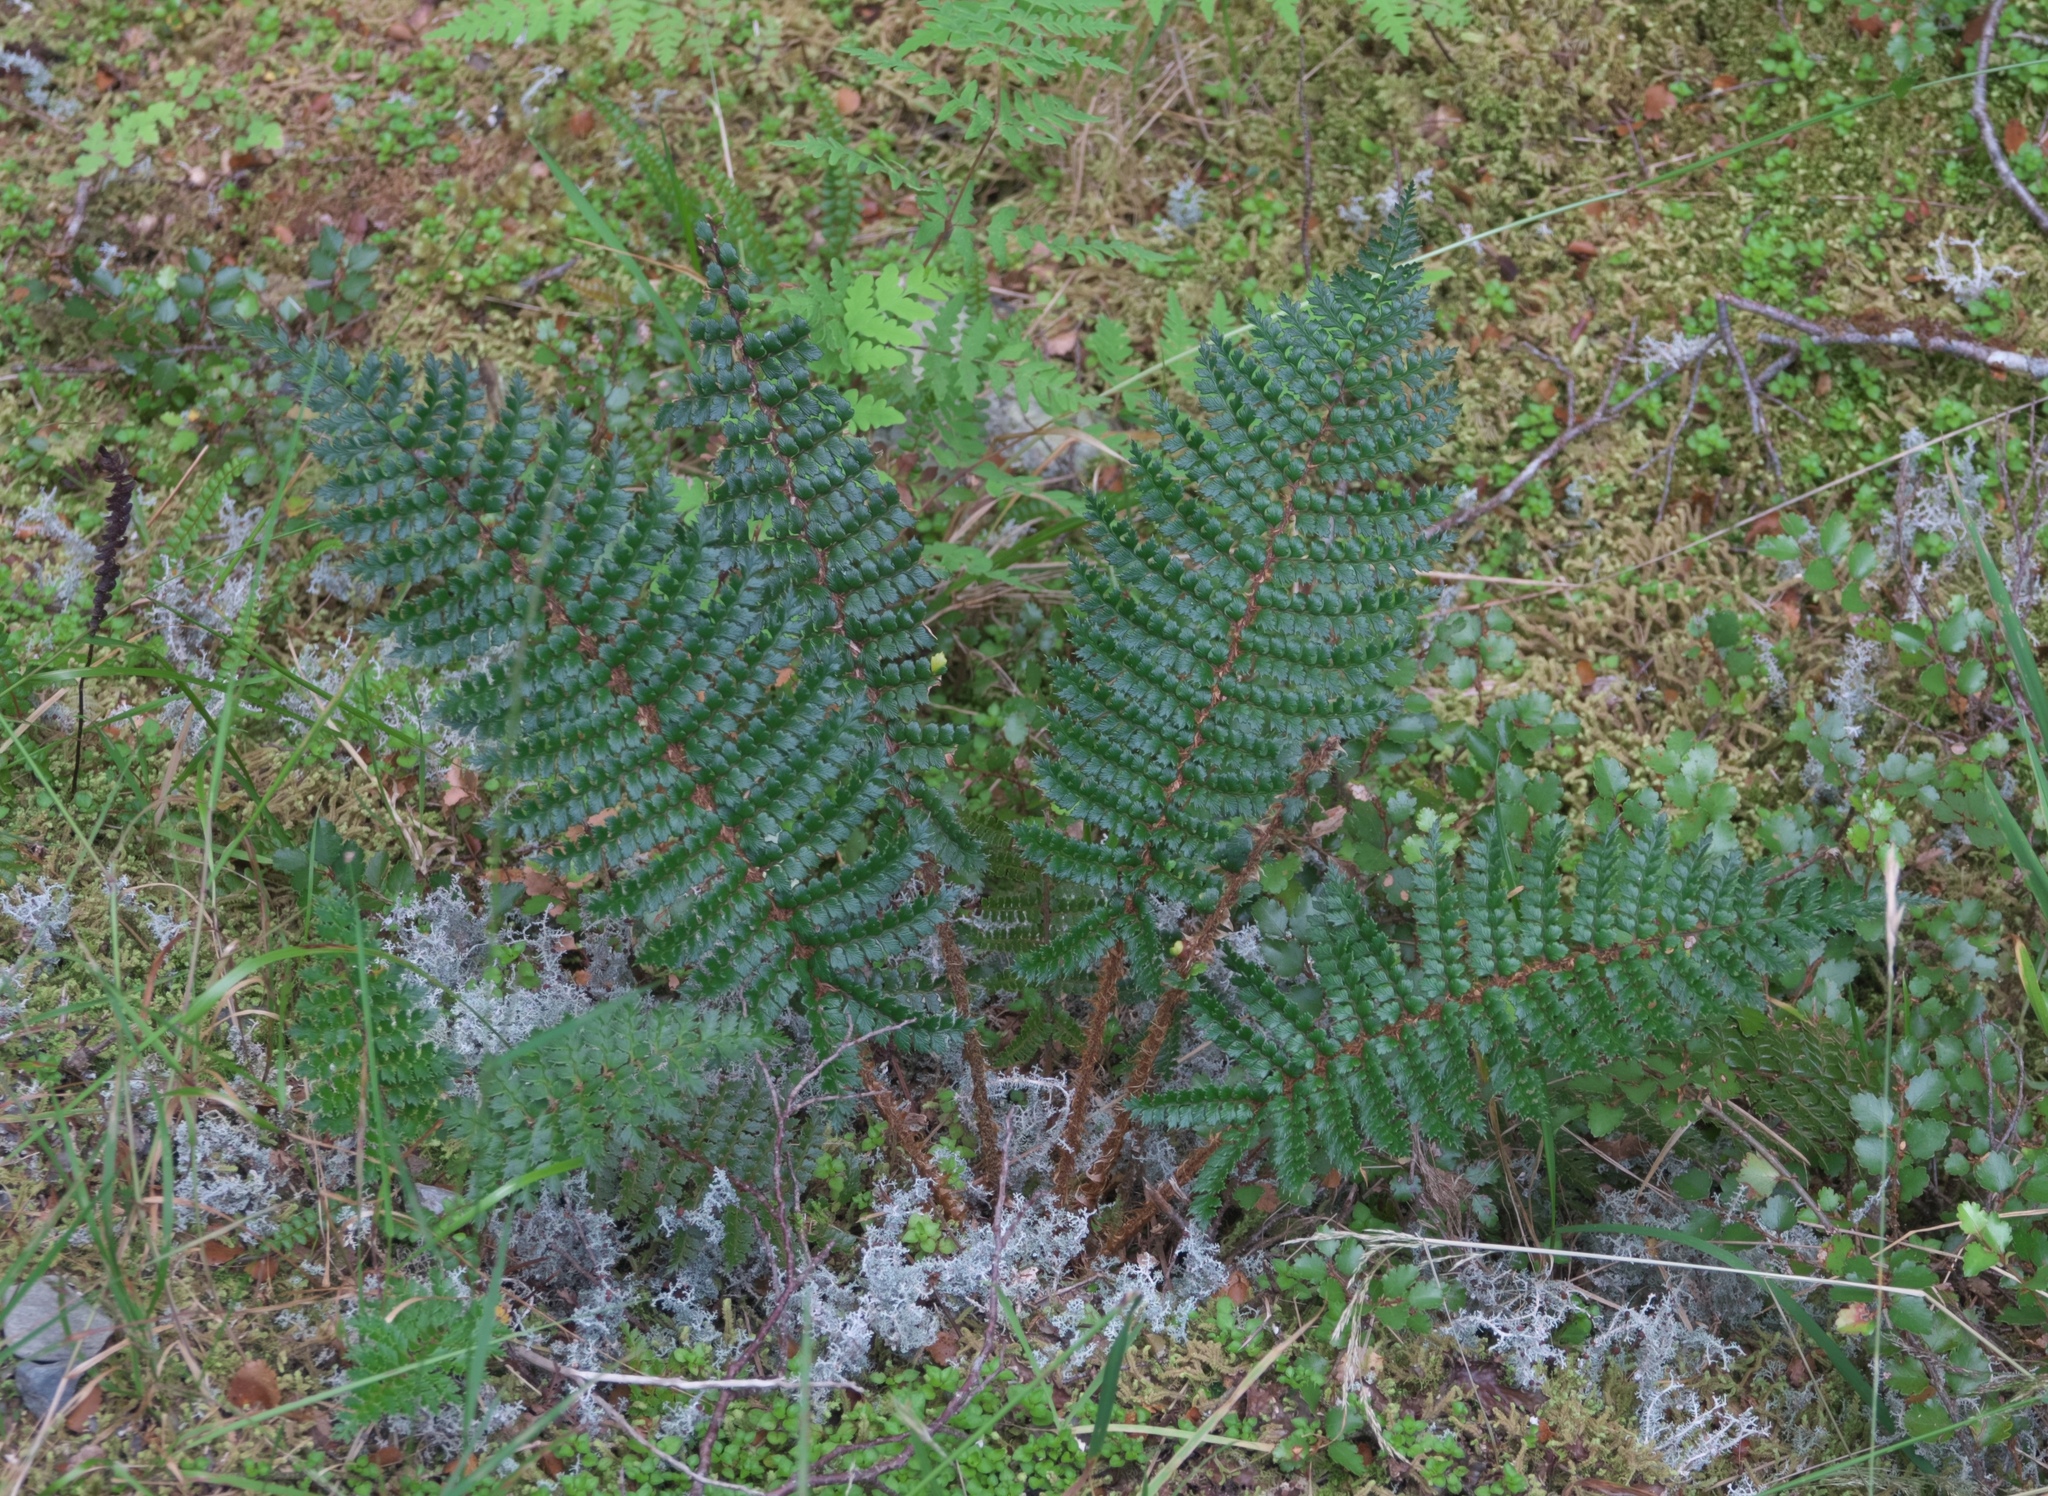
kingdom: Plantae
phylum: Tracheophyta
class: Polypodiopsida
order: Polypodiales
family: Dryopteridaceae
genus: Polystichum
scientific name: Polystichum vestitum
